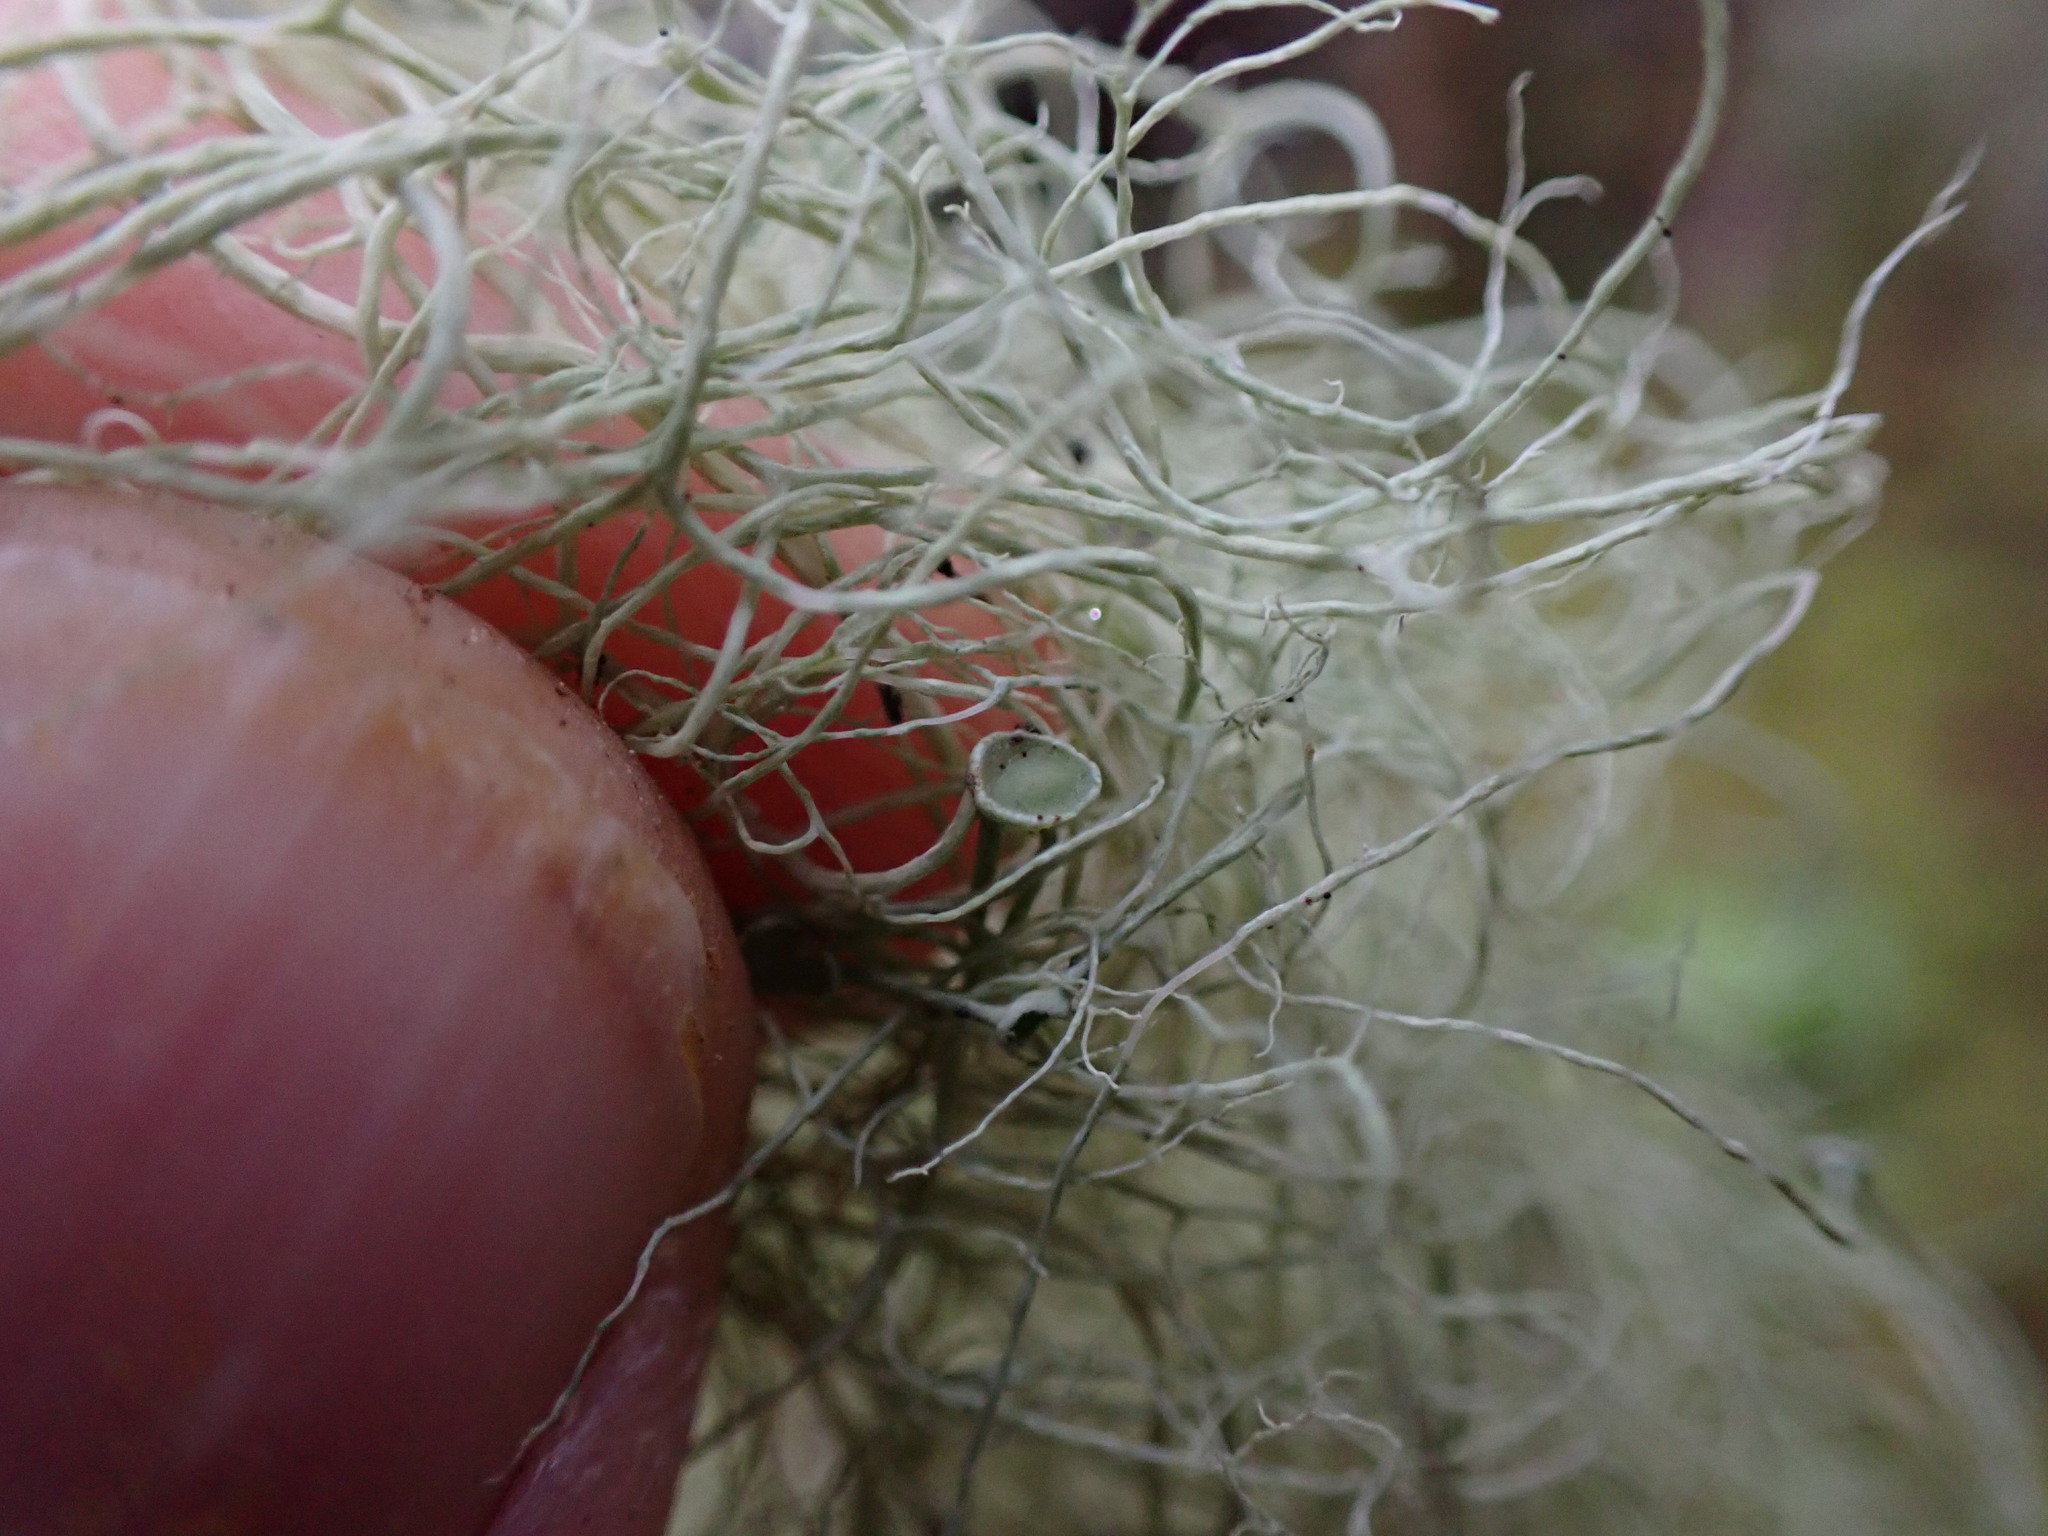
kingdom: Fungi
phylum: Ascomycota
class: Lecanoromycetes
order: Lecanorales
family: Parmeliaceae
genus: Alectoria
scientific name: Alectoria vancouverensis
